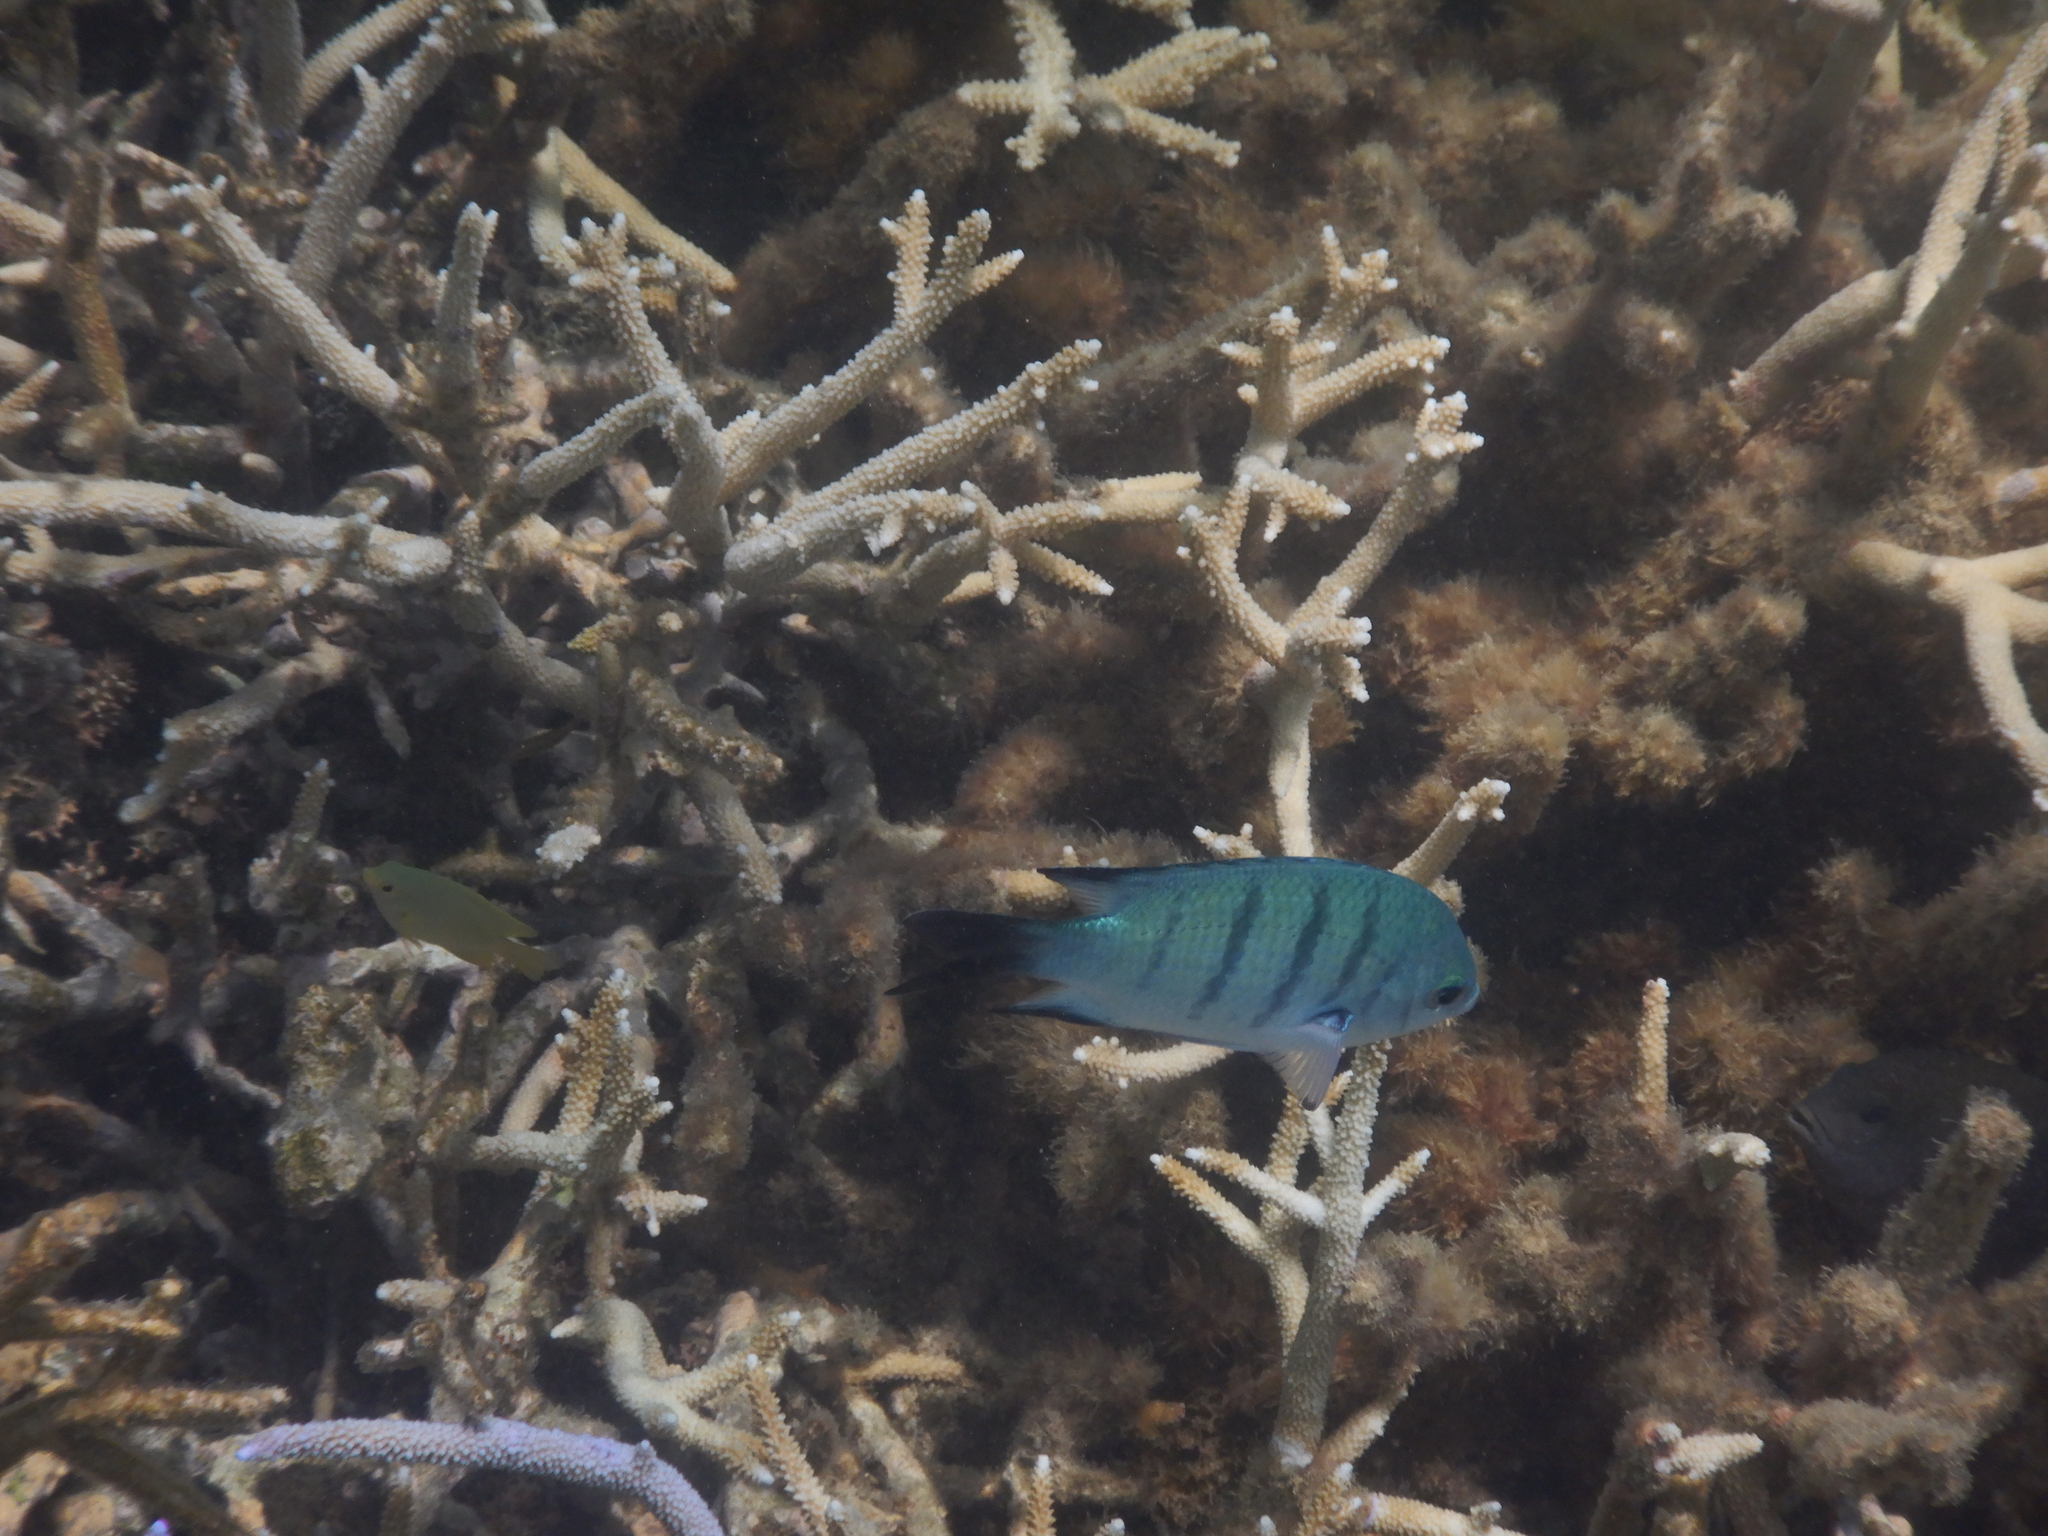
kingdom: Animalia
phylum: Chordata
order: Perciformes
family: Pomacentridae
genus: Abudefduf
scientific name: Abudefduf whitleyi
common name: Whitley's seargent
